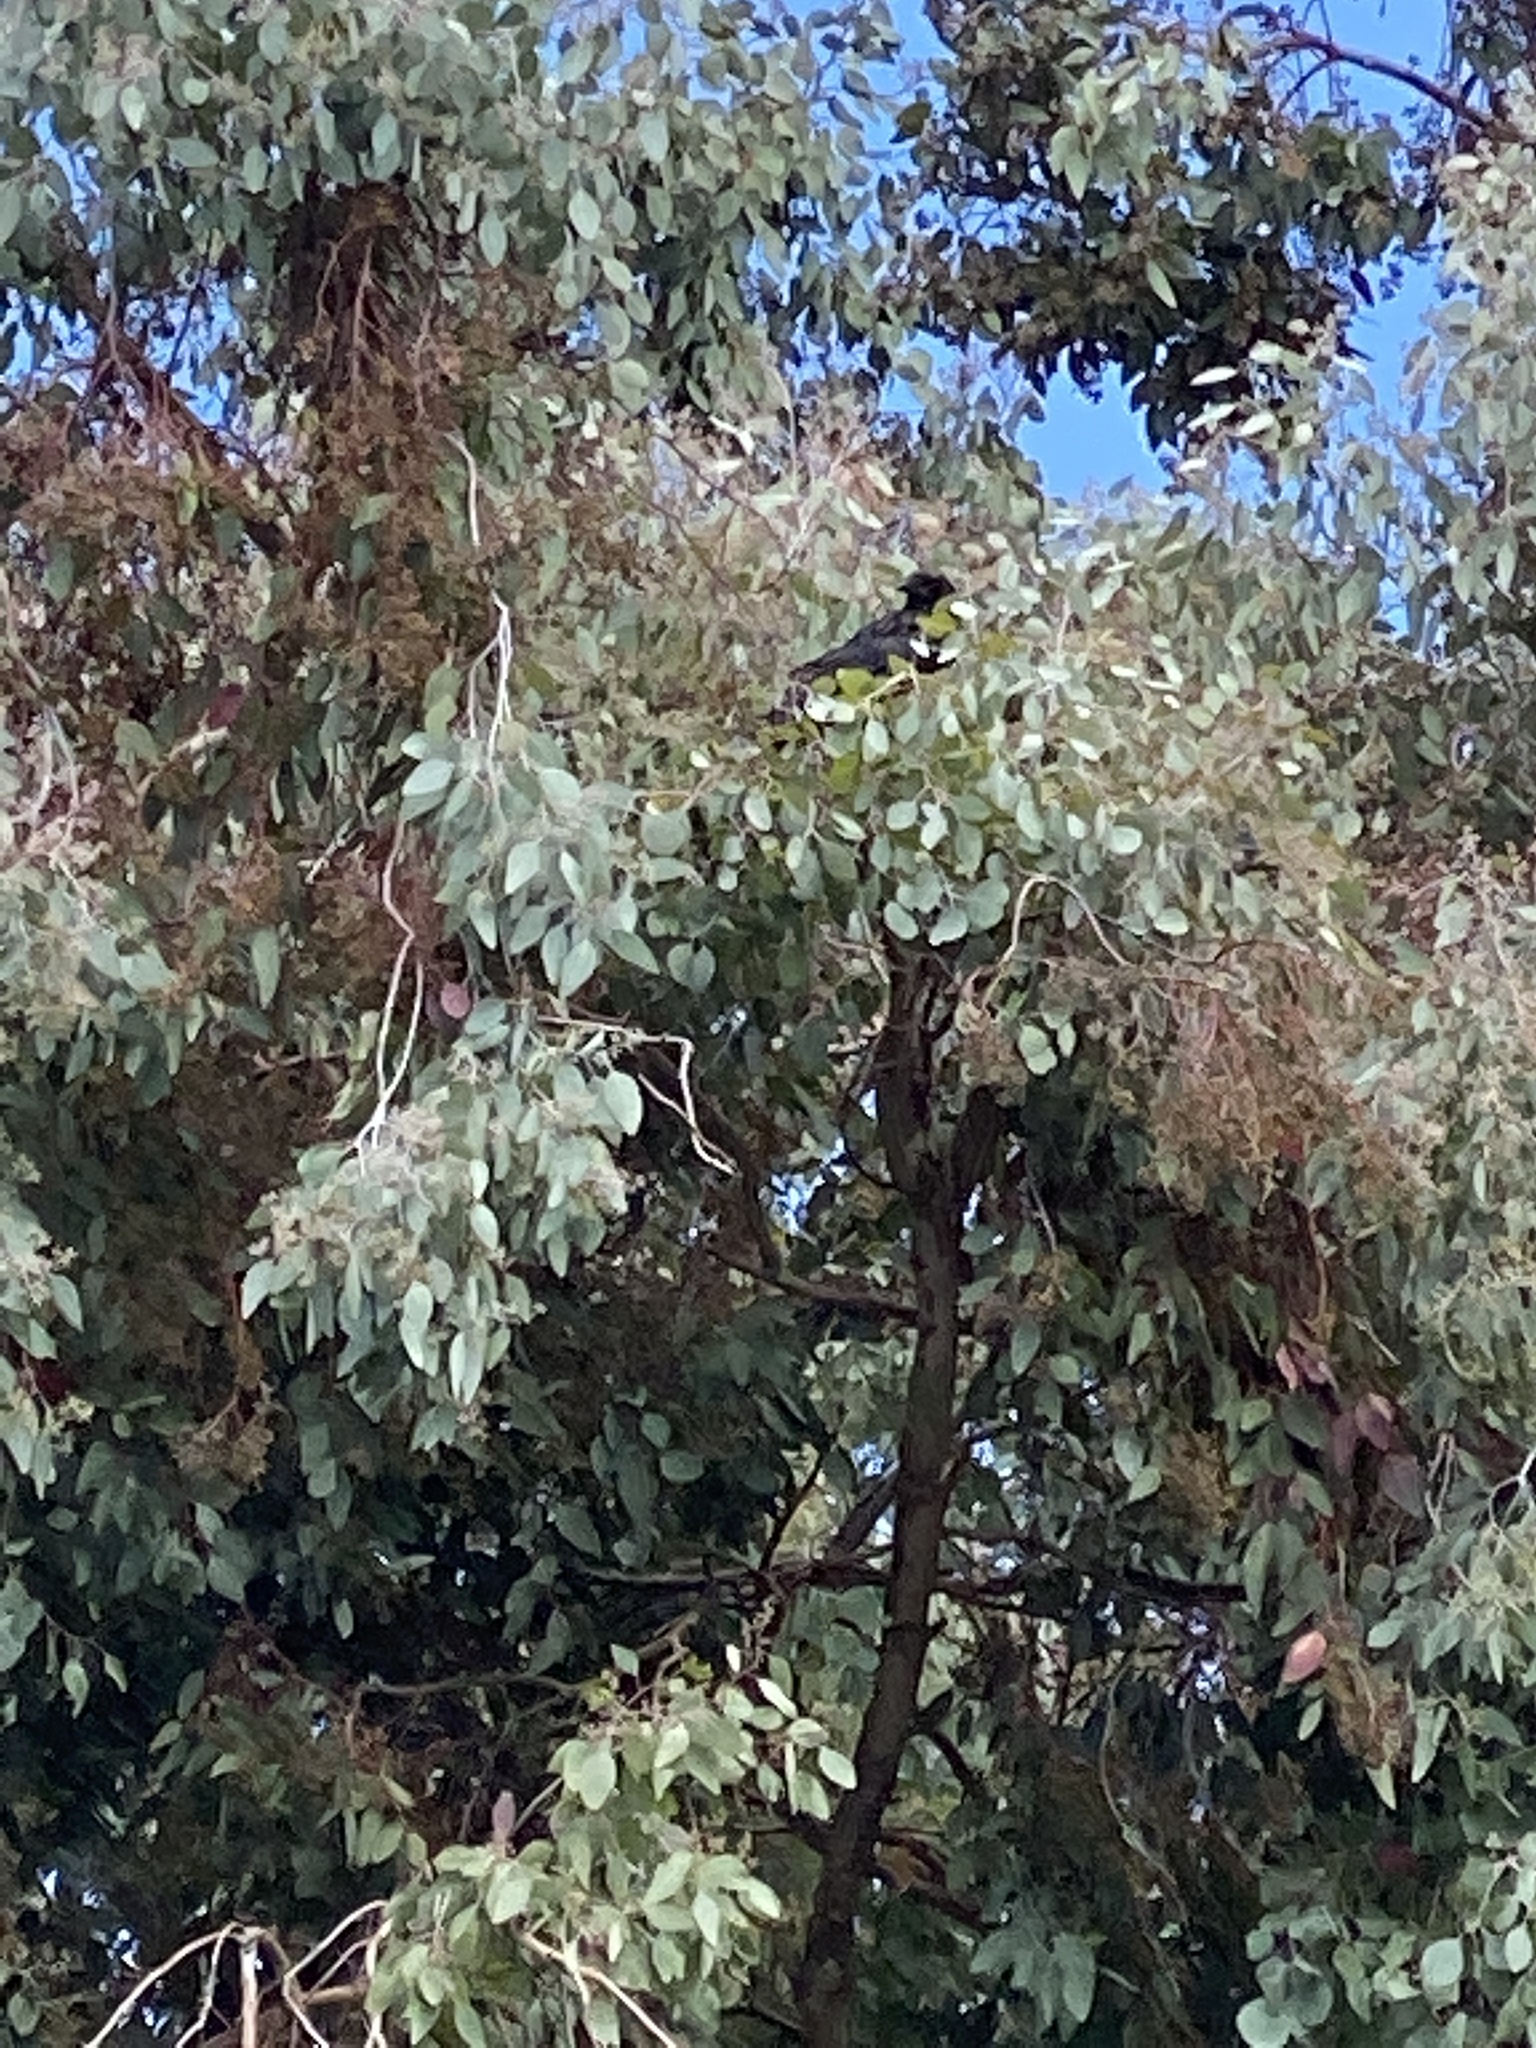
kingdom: Animalia
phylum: Chordata
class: Aves
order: Passeriformes
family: Corvidae
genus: Corvus
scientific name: Corvus brachyrhynchos
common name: American crow
